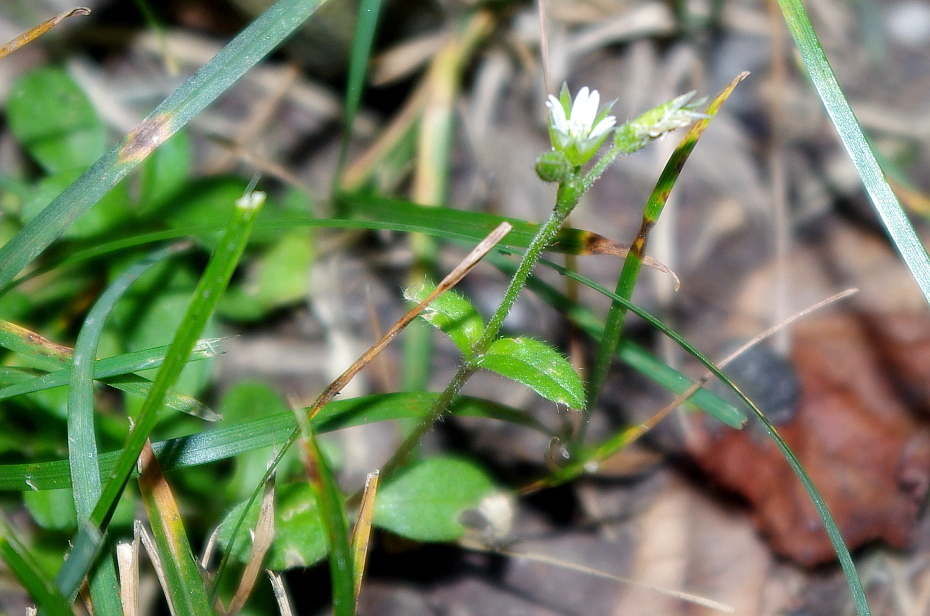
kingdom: Plantae
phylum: Tracheophyta
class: Magnoliopsida
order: Caryophyllales
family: Caryophyllaceae
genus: Cerastium
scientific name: Cerastium holosteoides
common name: Big chickweed
